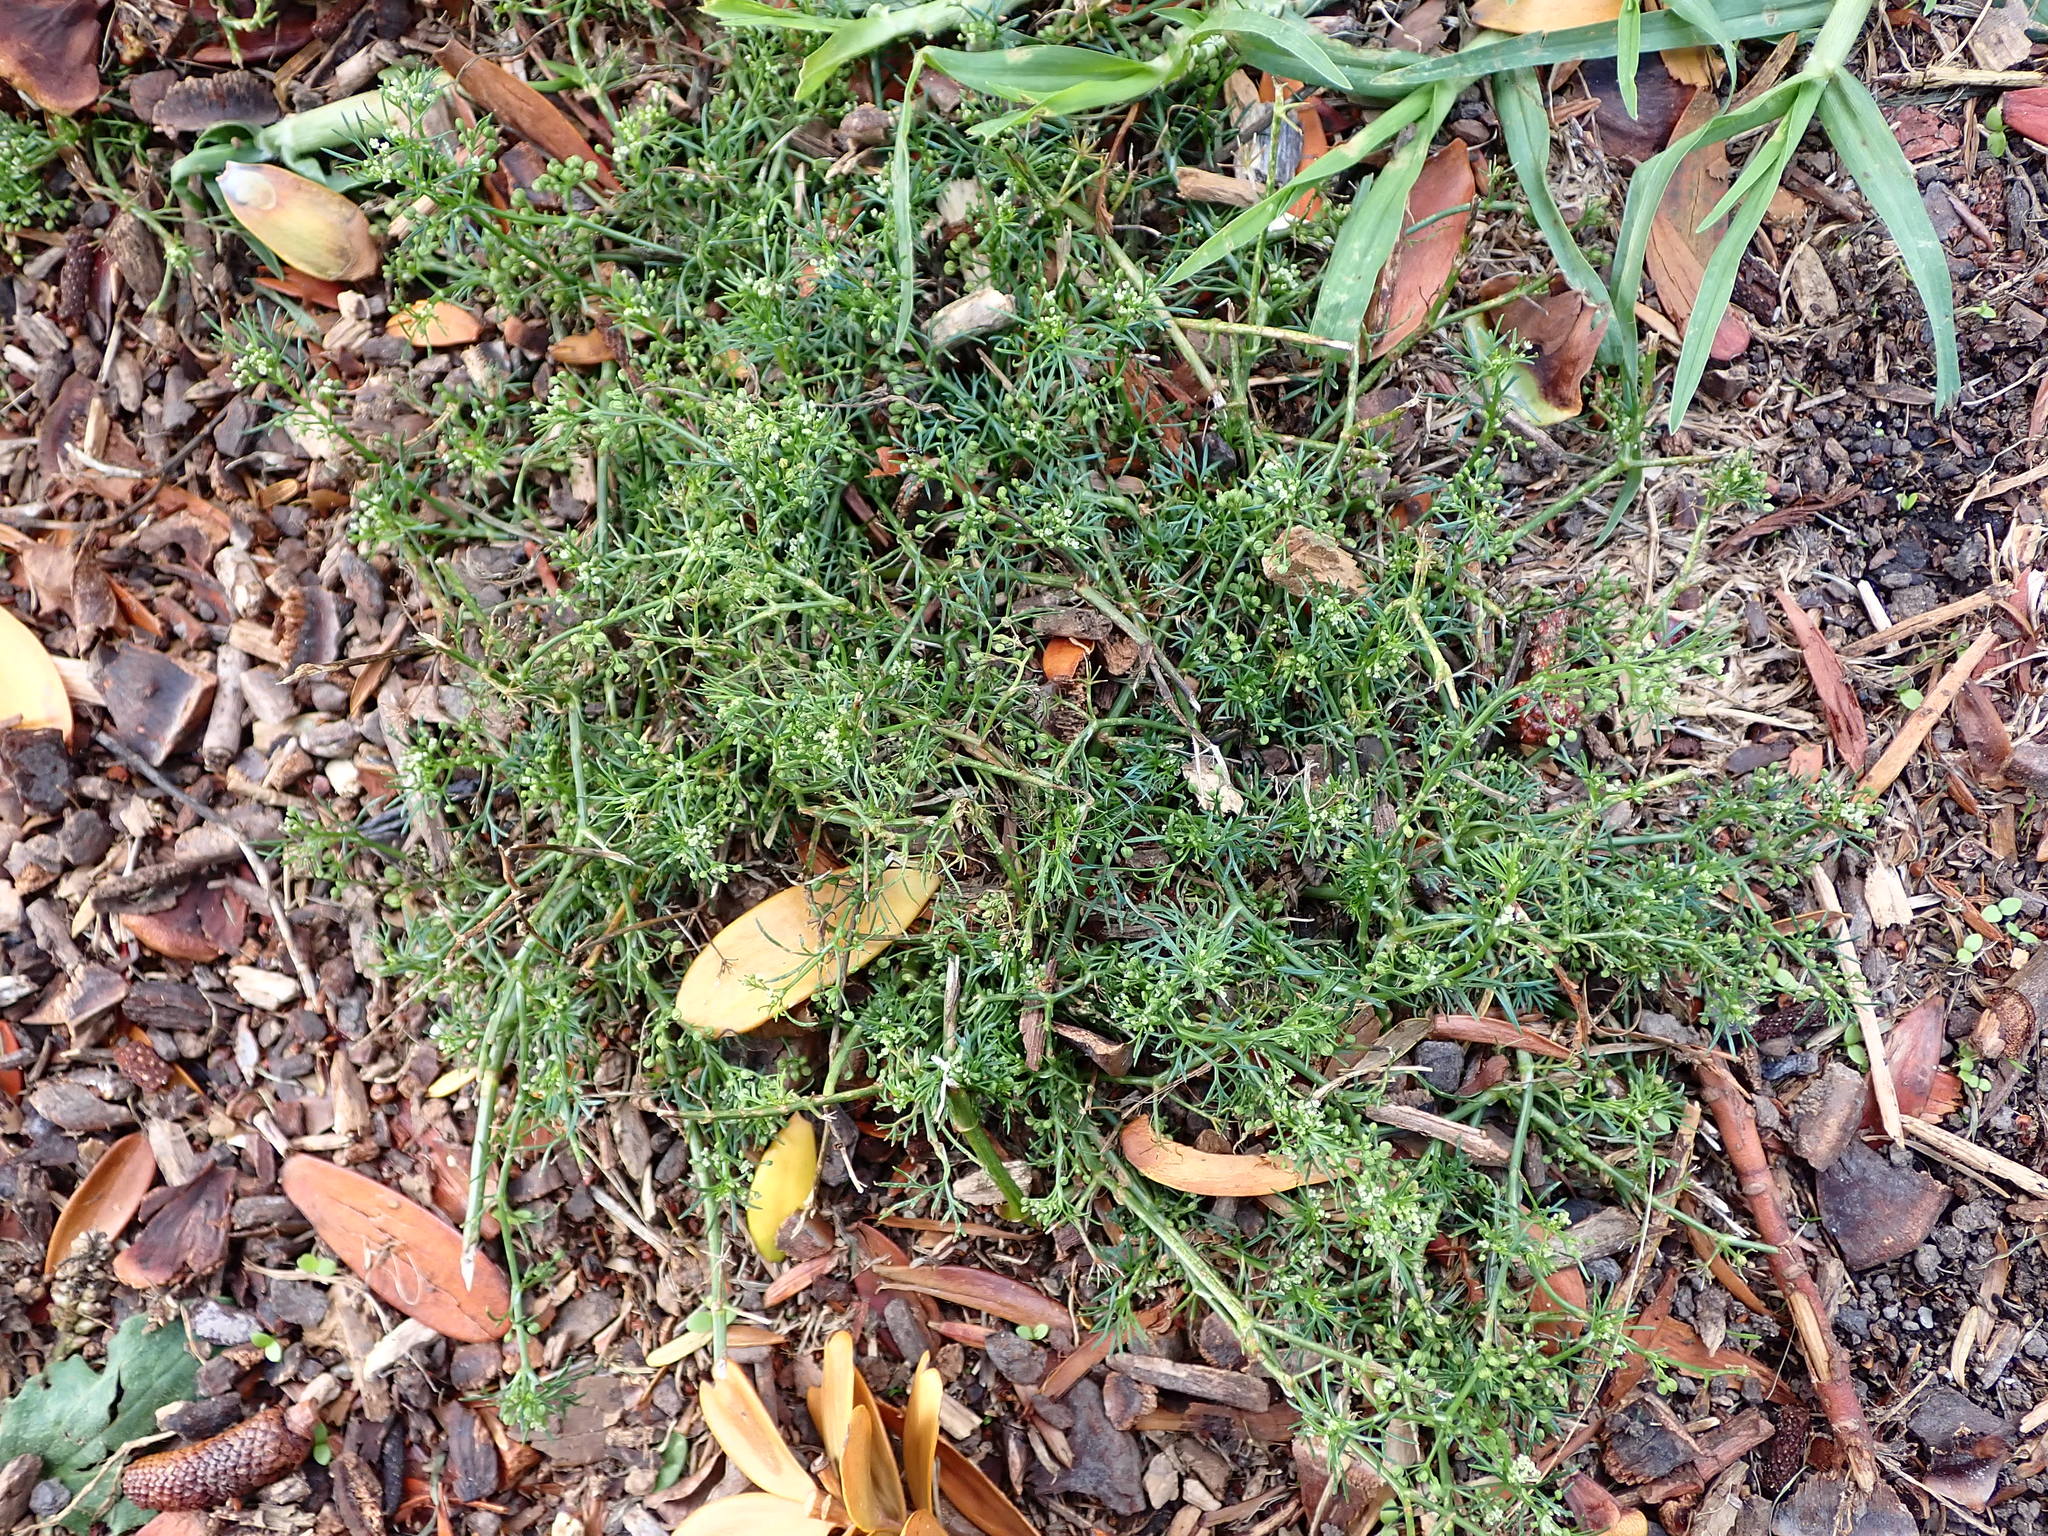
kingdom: Plantae
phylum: Tracheophyta
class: Magnoliopsida
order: Apiales
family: Apiaceae
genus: Cyclospermum
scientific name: Cyclospermum leptophyllum
